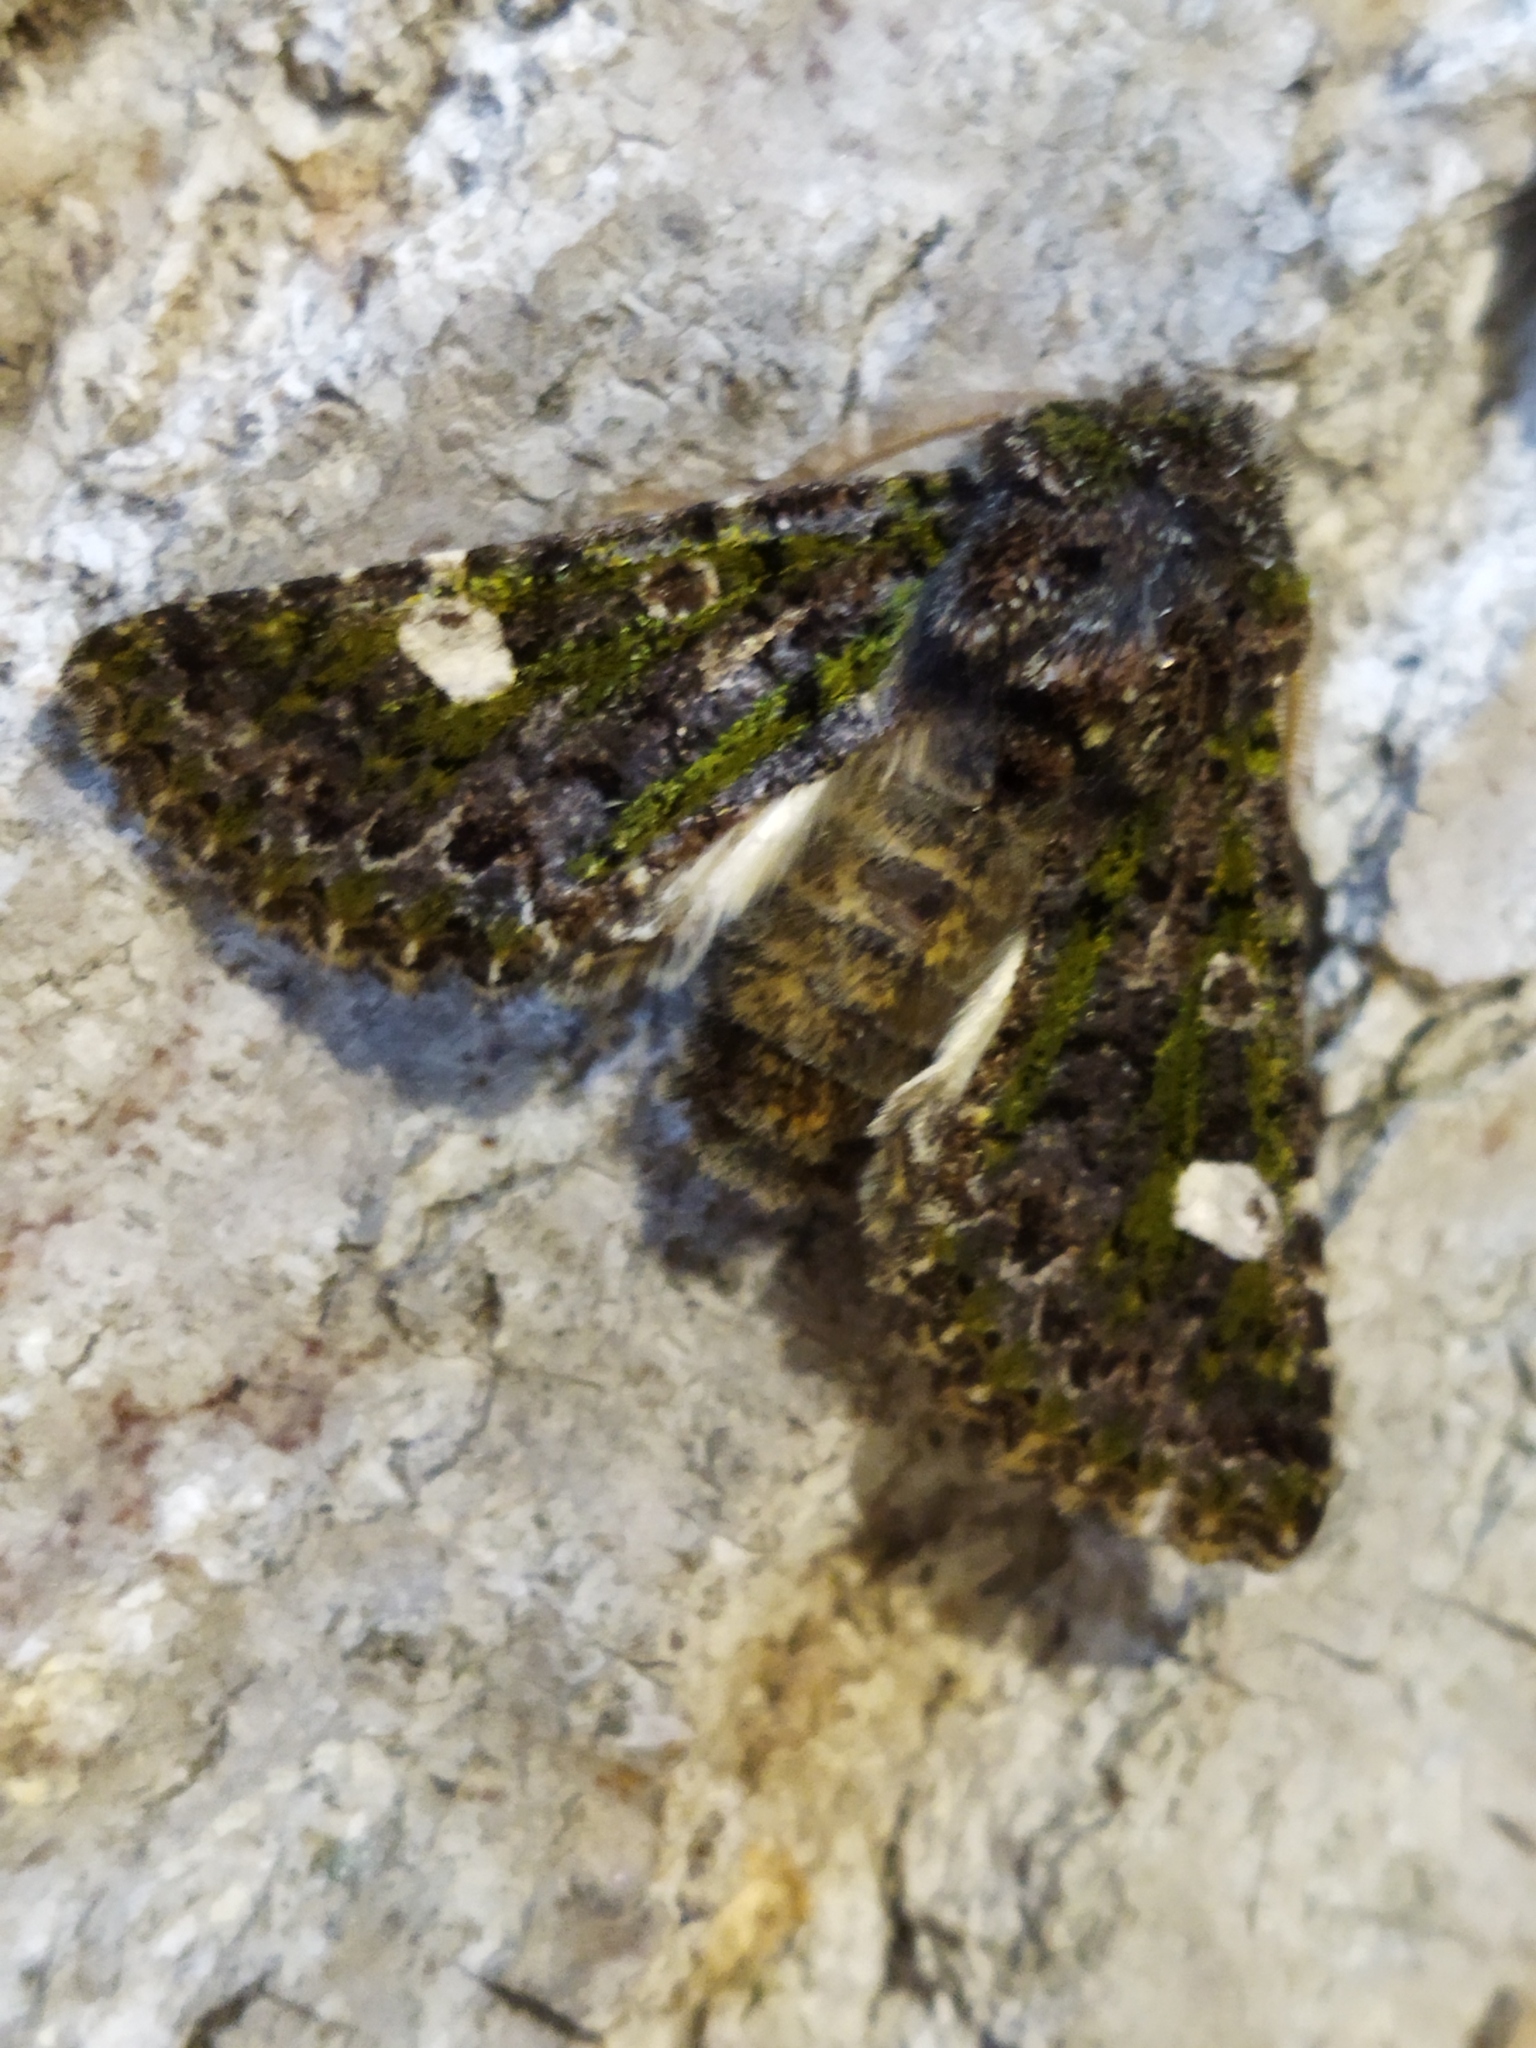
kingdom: Animalia
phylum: Arthropoda
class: Insecta
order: Lepidoptera
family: Noctuidae
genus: Valeria
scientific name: Valeria oleagina
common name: Green-brindled dot
